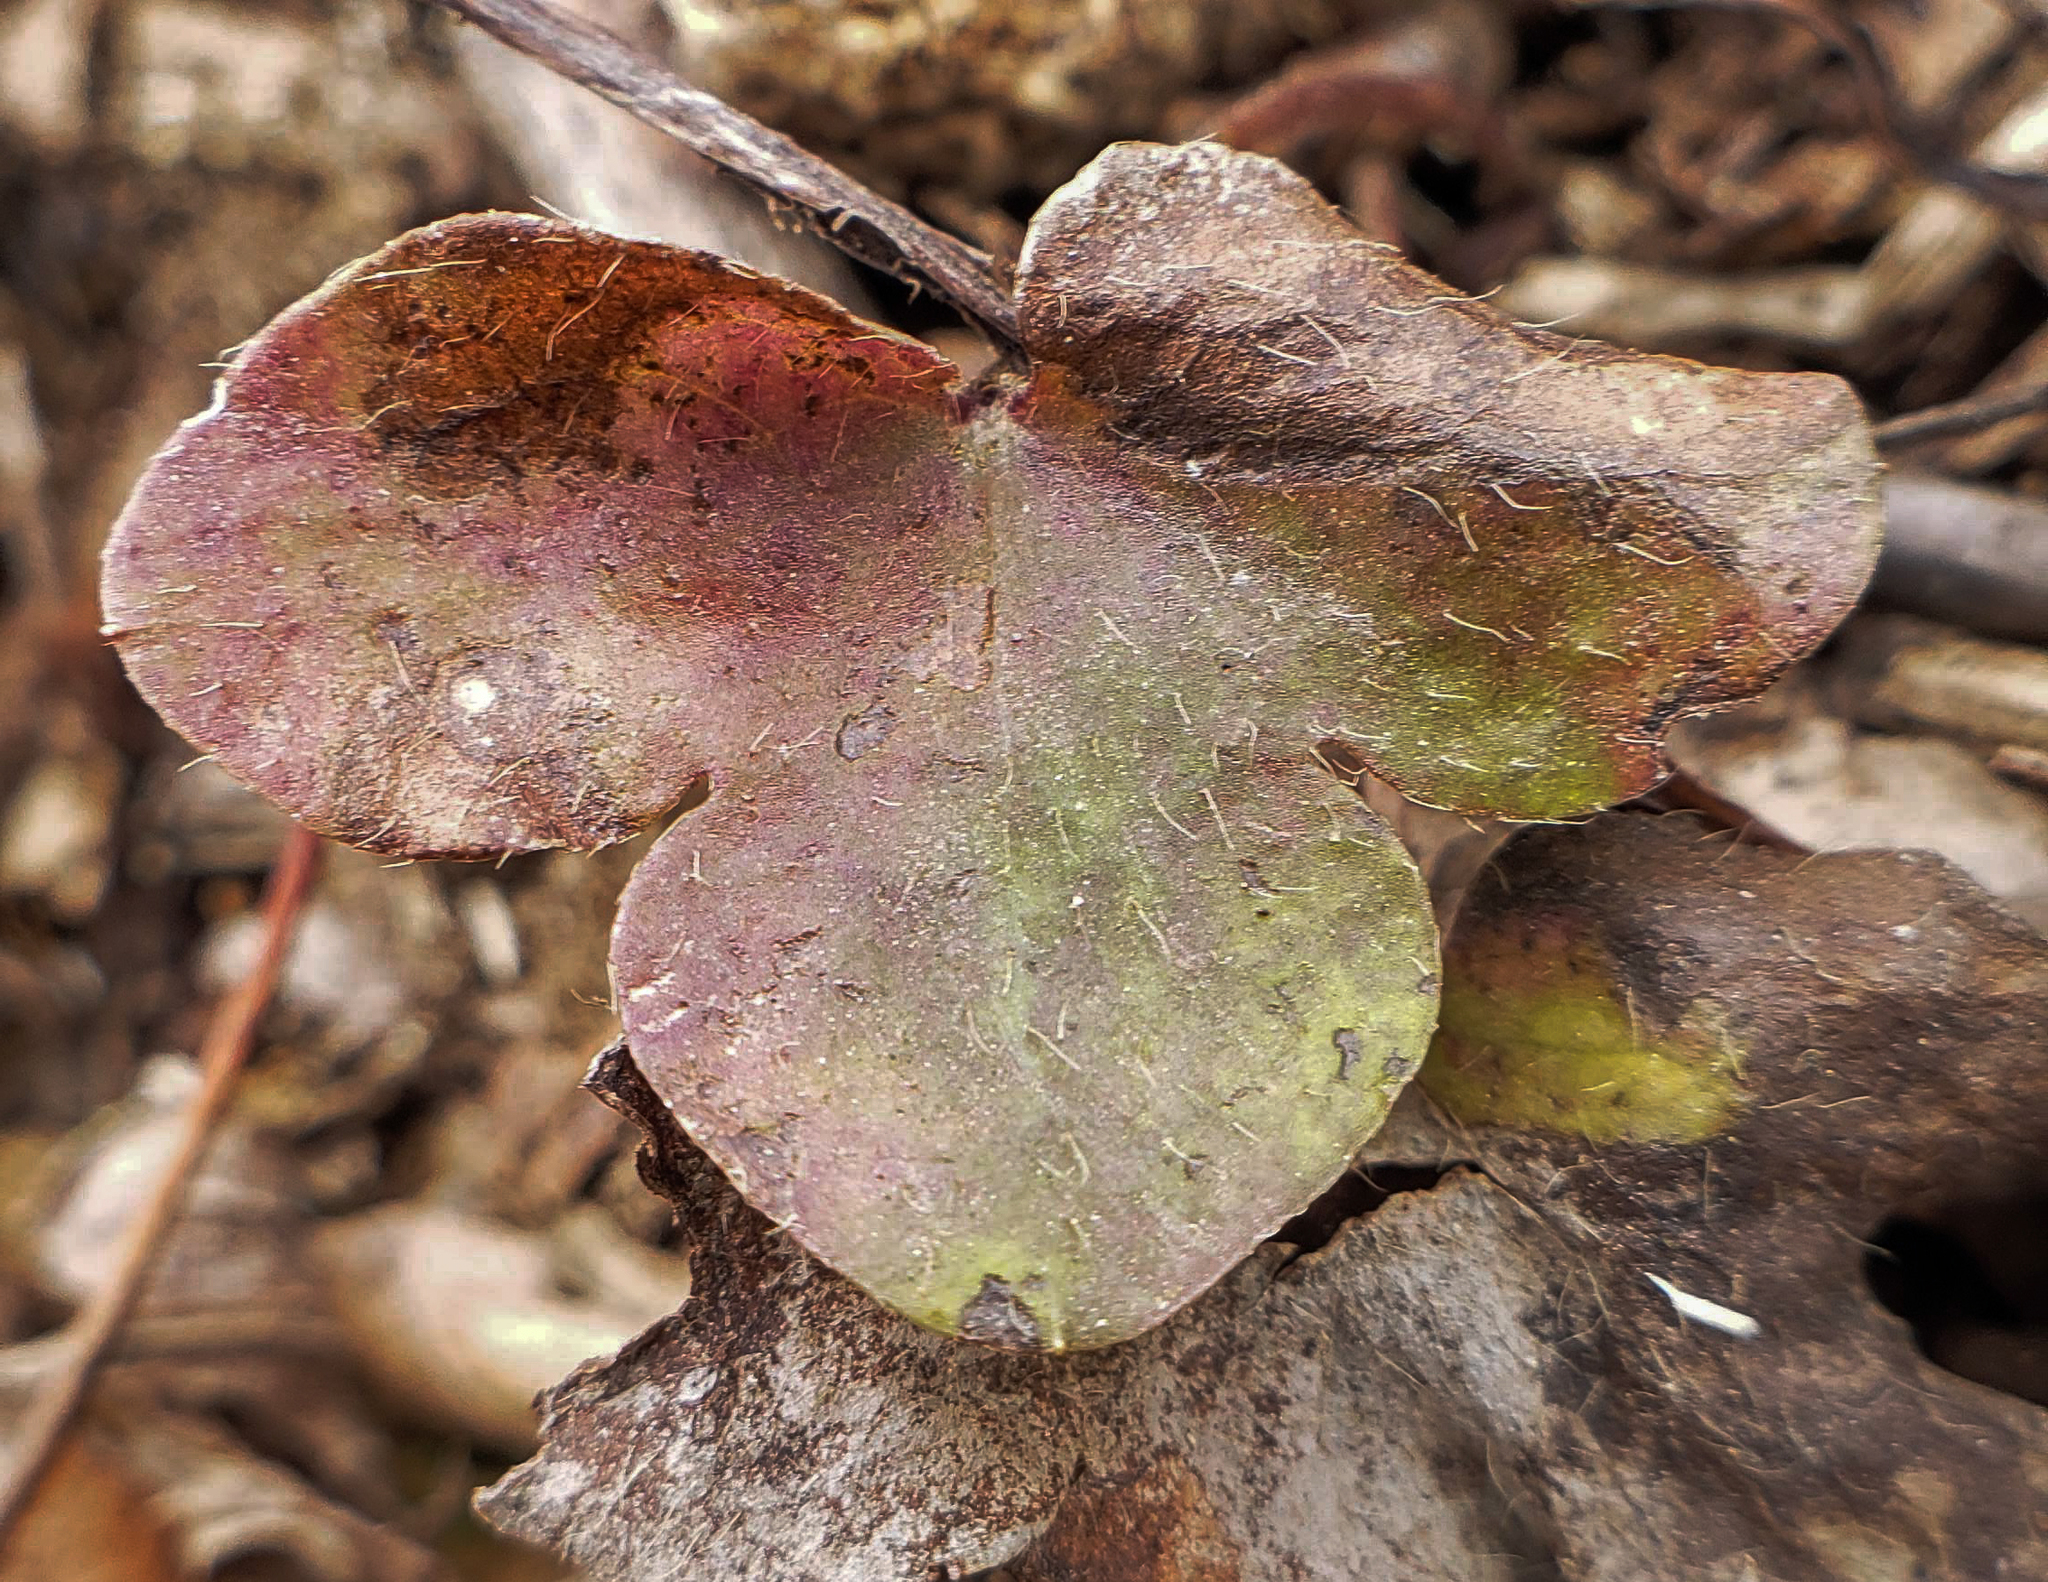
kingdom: Plantae
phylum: Tracheophyta
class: Magnoliopsida
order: Ranunculales
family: Ranunculaceae
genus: Hepatica
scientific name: Hepatica americana
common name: American hepatica
